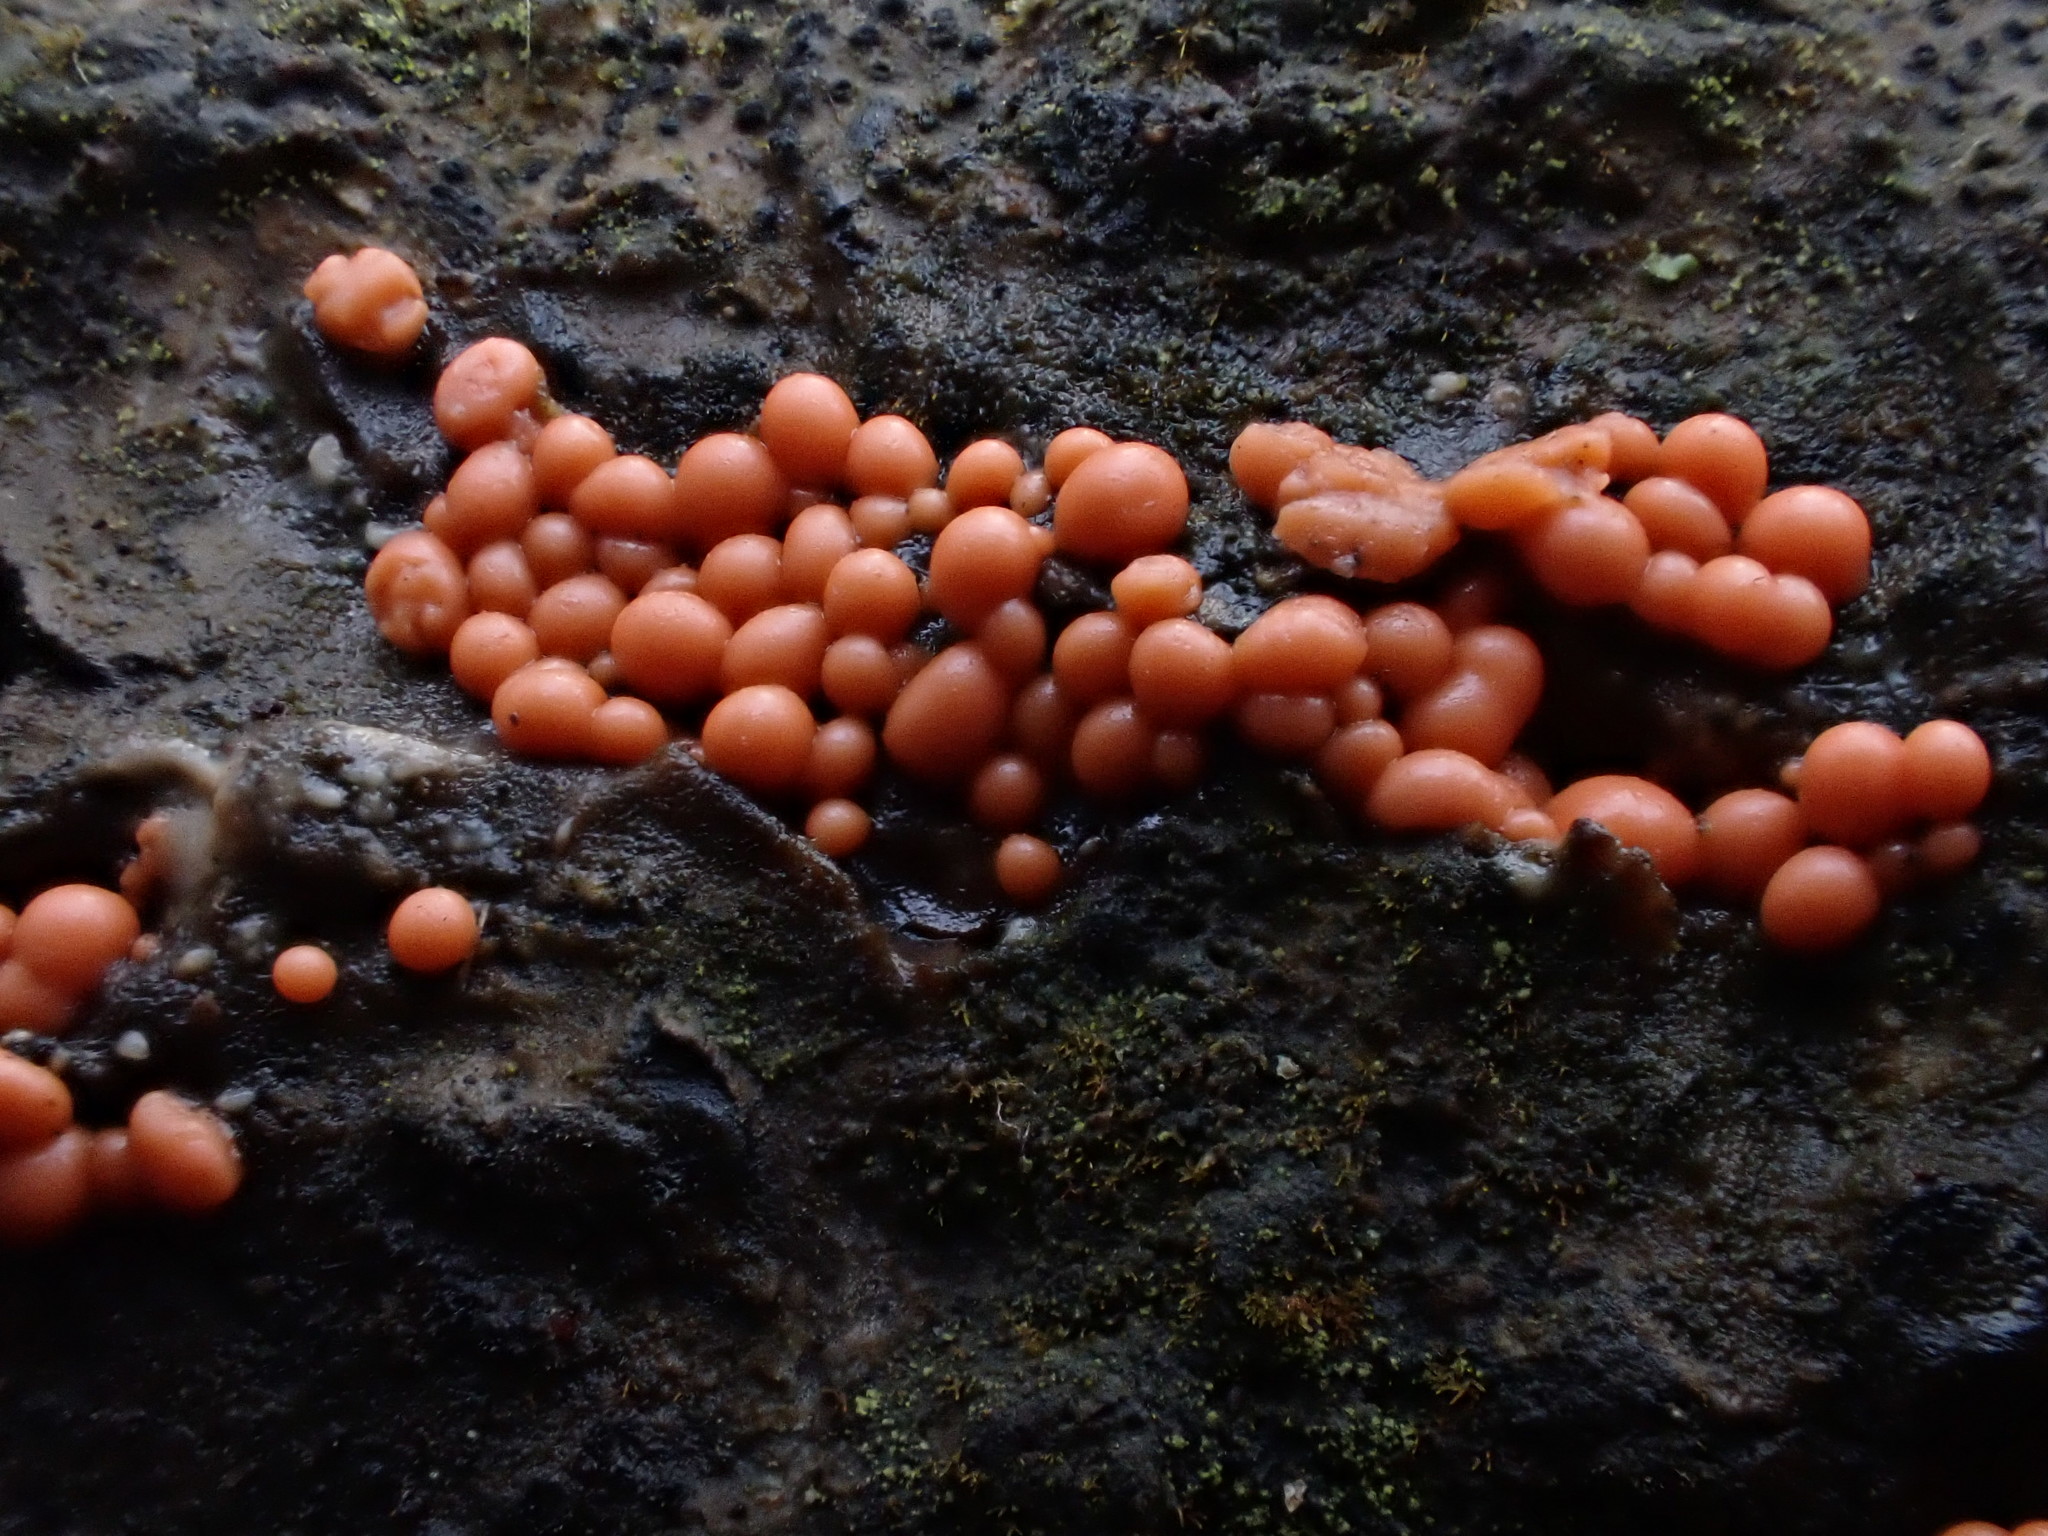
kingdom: Protozoa
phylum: Mycetozoa
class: Myxomycetes
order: Cribrariales
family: Tubiferaceae
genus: Lycogala
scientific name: Lycogala epidendrum
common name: Wolf's milk
